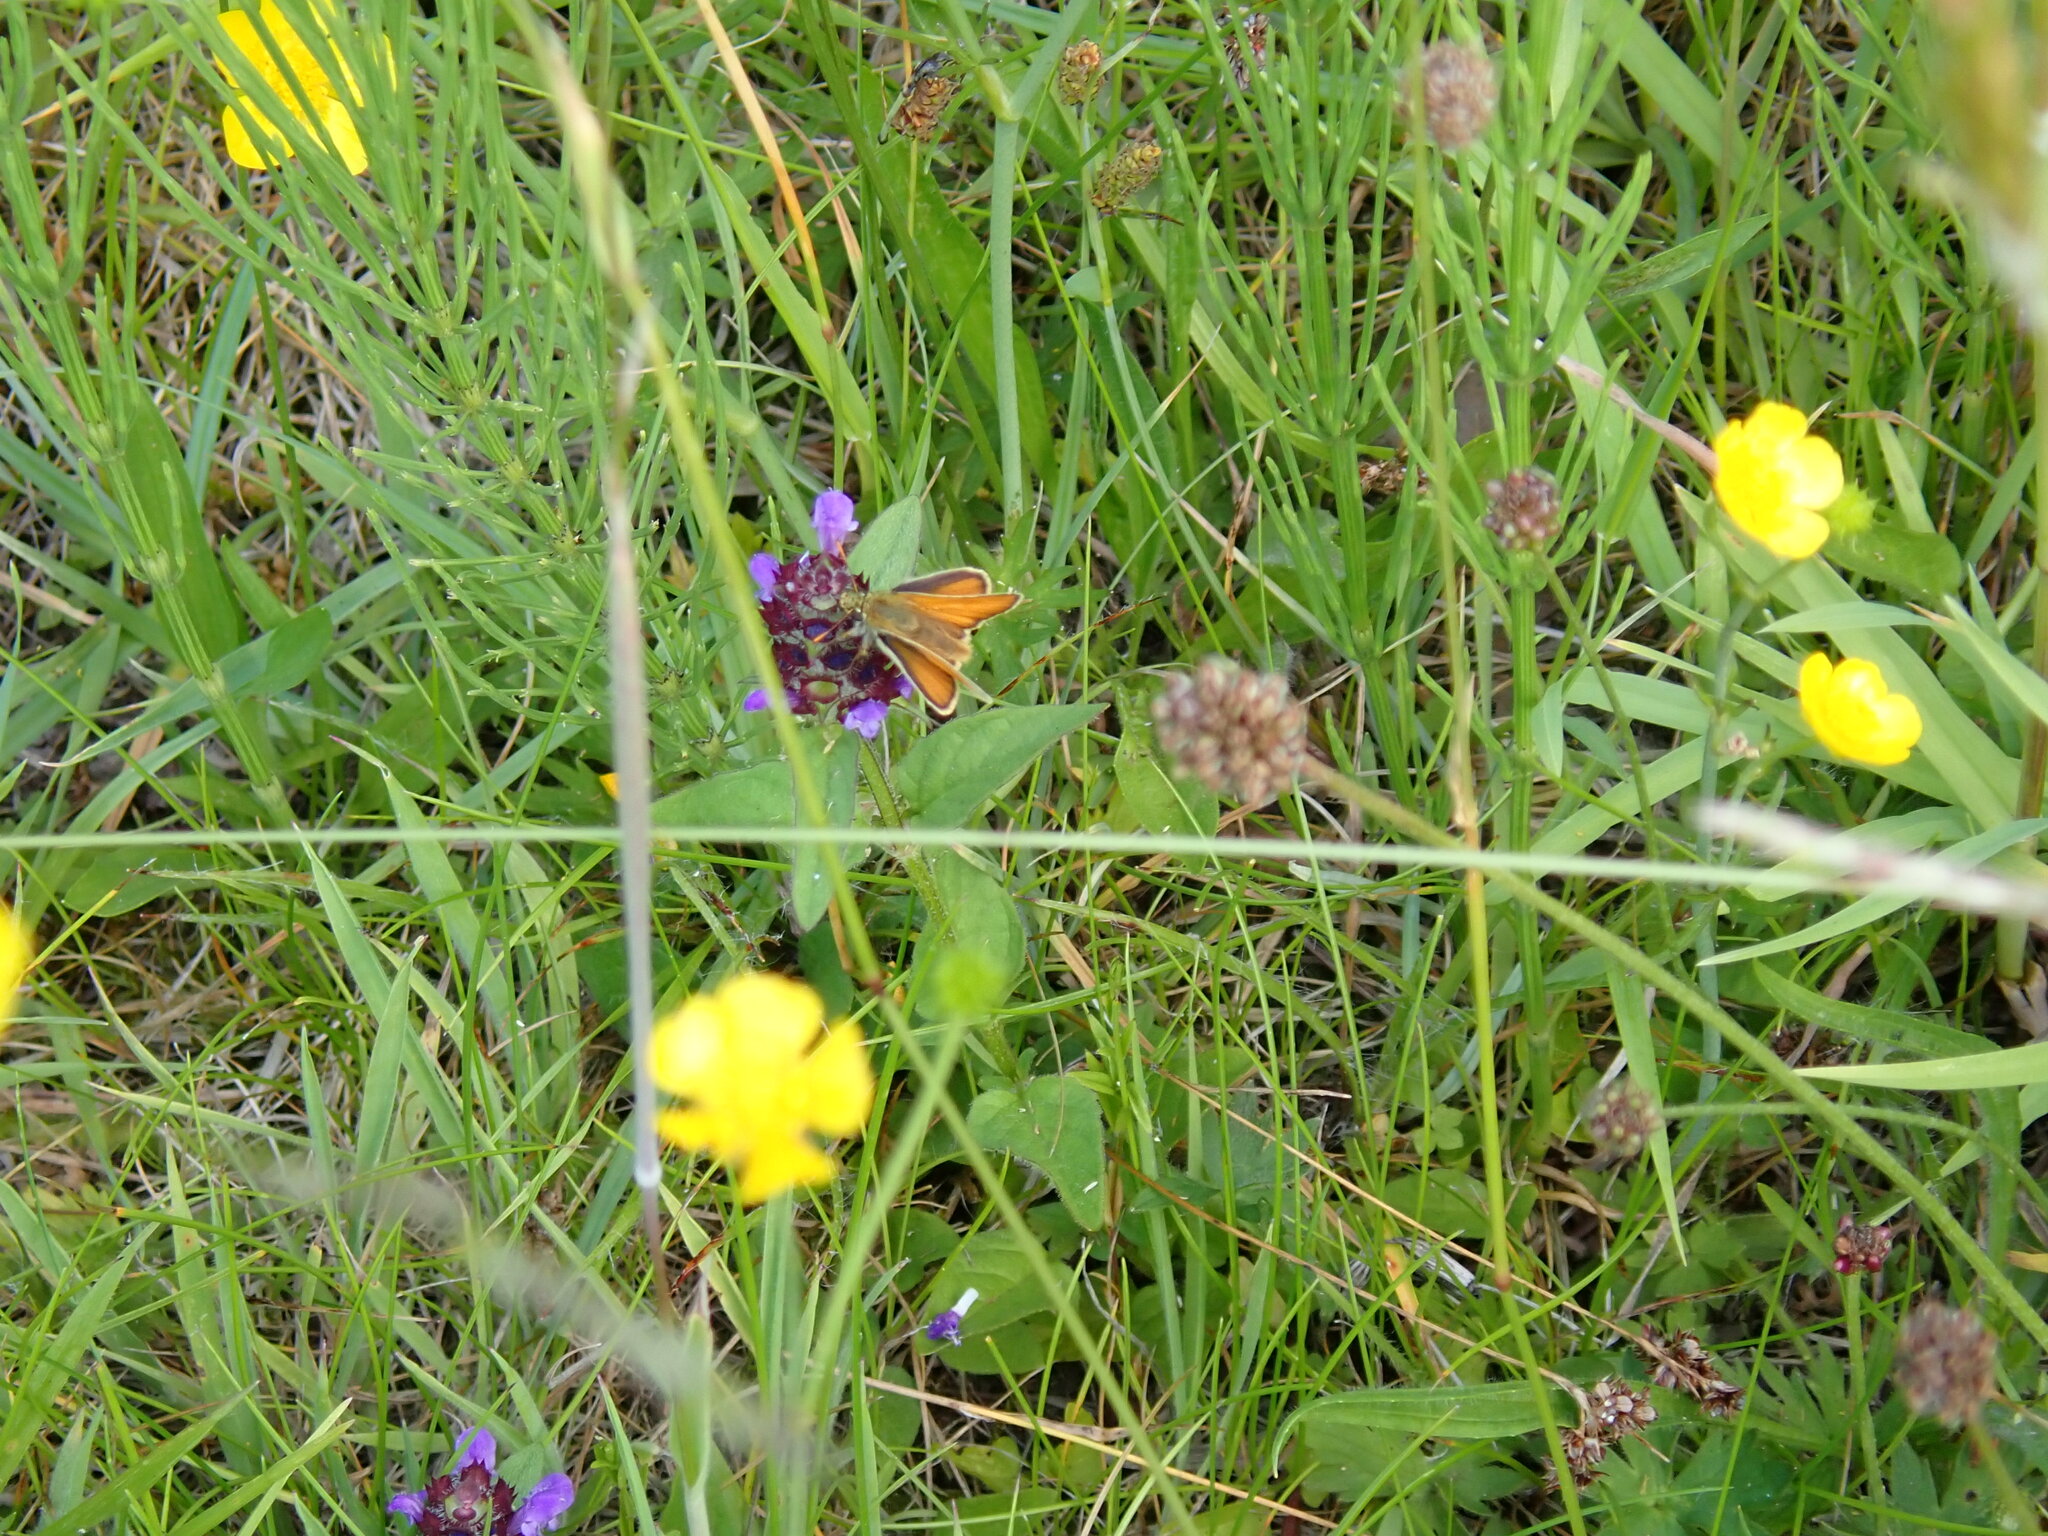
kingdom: Animalia
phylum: Arthropoda
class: Insecta
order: Lepidoptera
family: Hesperiidae
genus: Thymelicus
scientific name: Thymelicus sylvestris
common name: Small skipper
